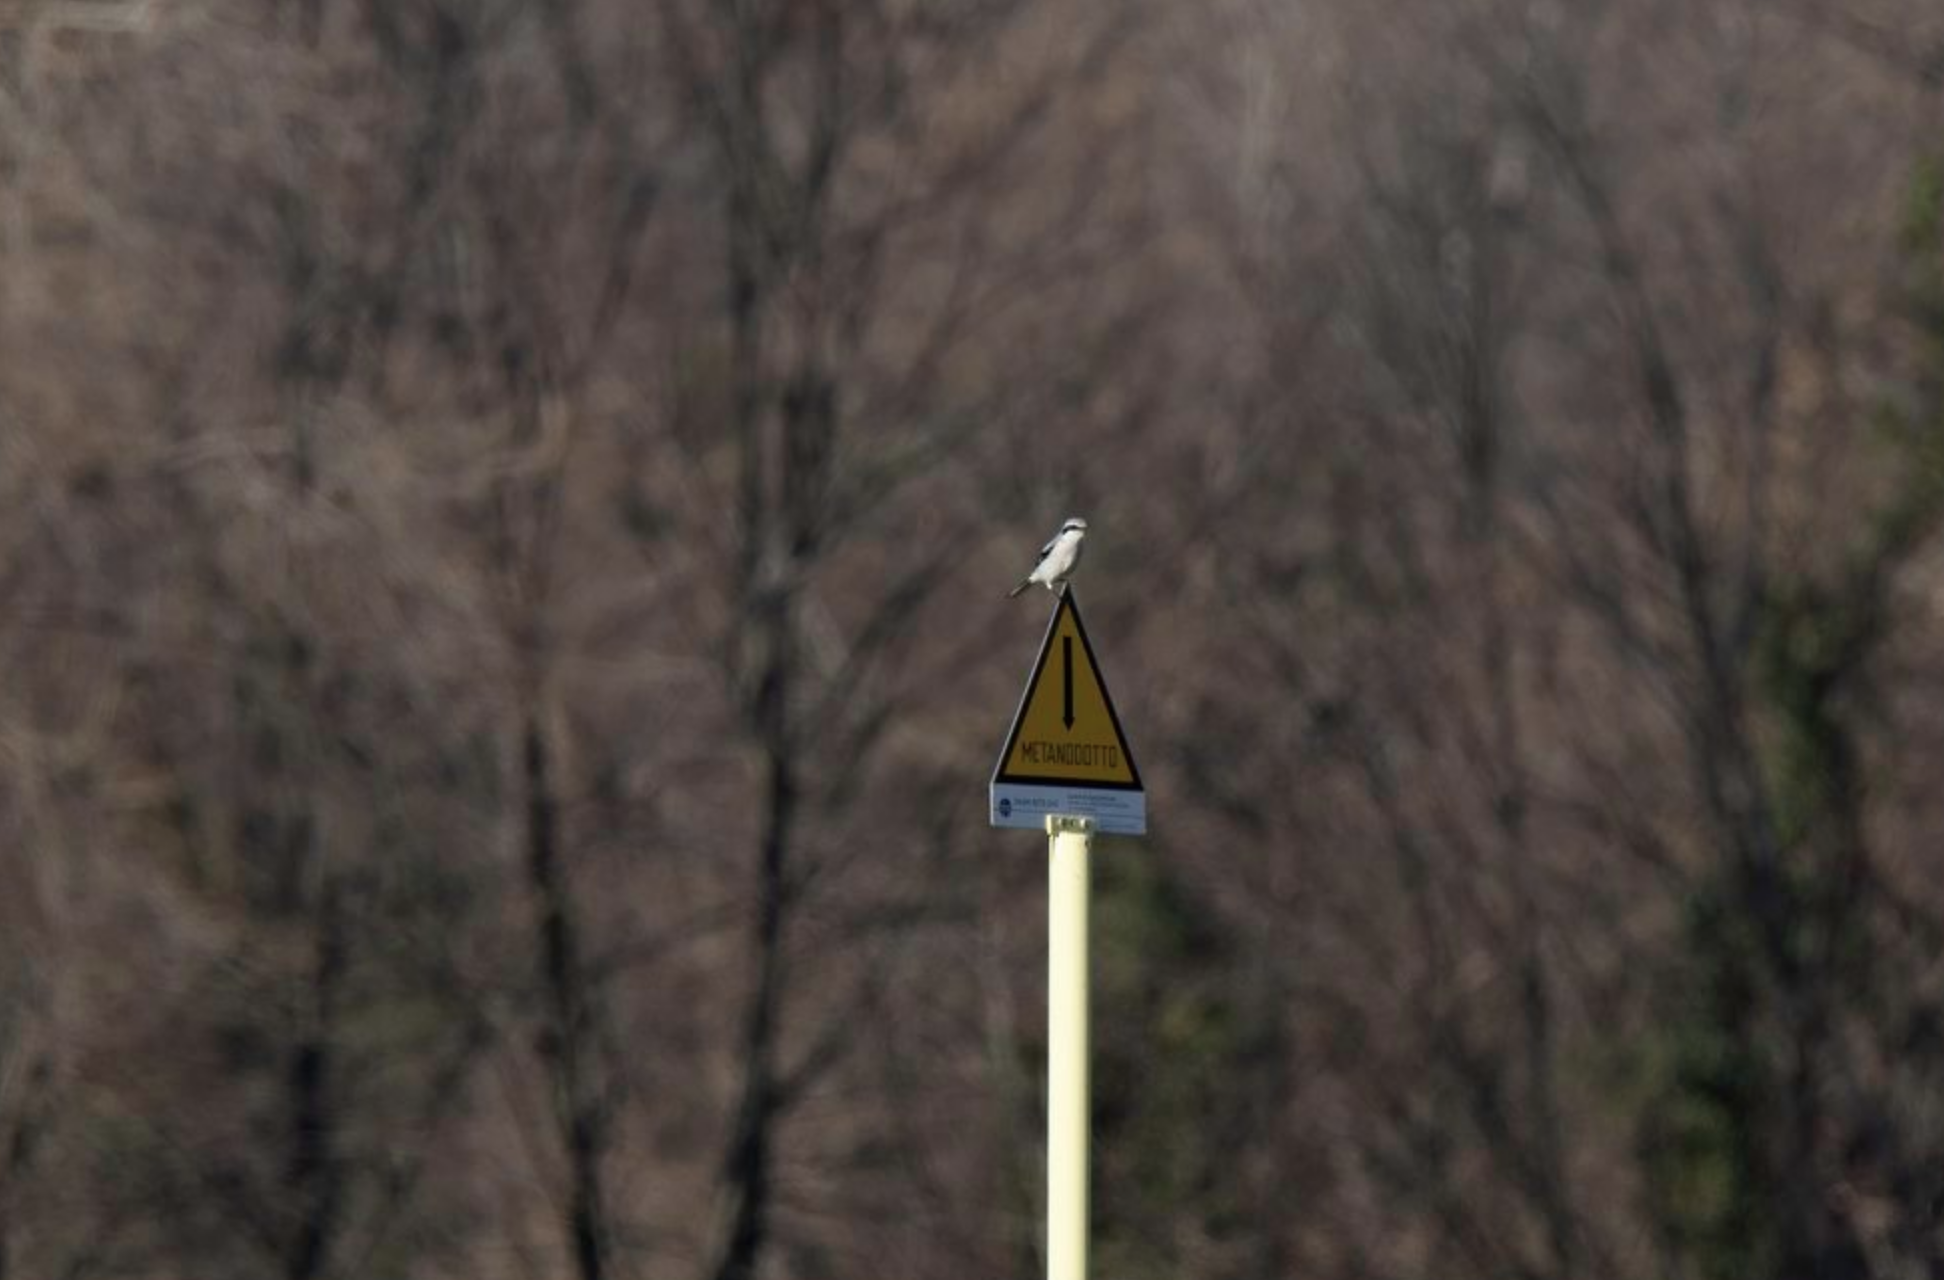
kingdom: Animalia
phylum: Chordata
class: Aves
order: Passeriformes
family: Laniidae
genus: Lanius
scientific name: Lanius excubitor
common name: Great grey shrike
